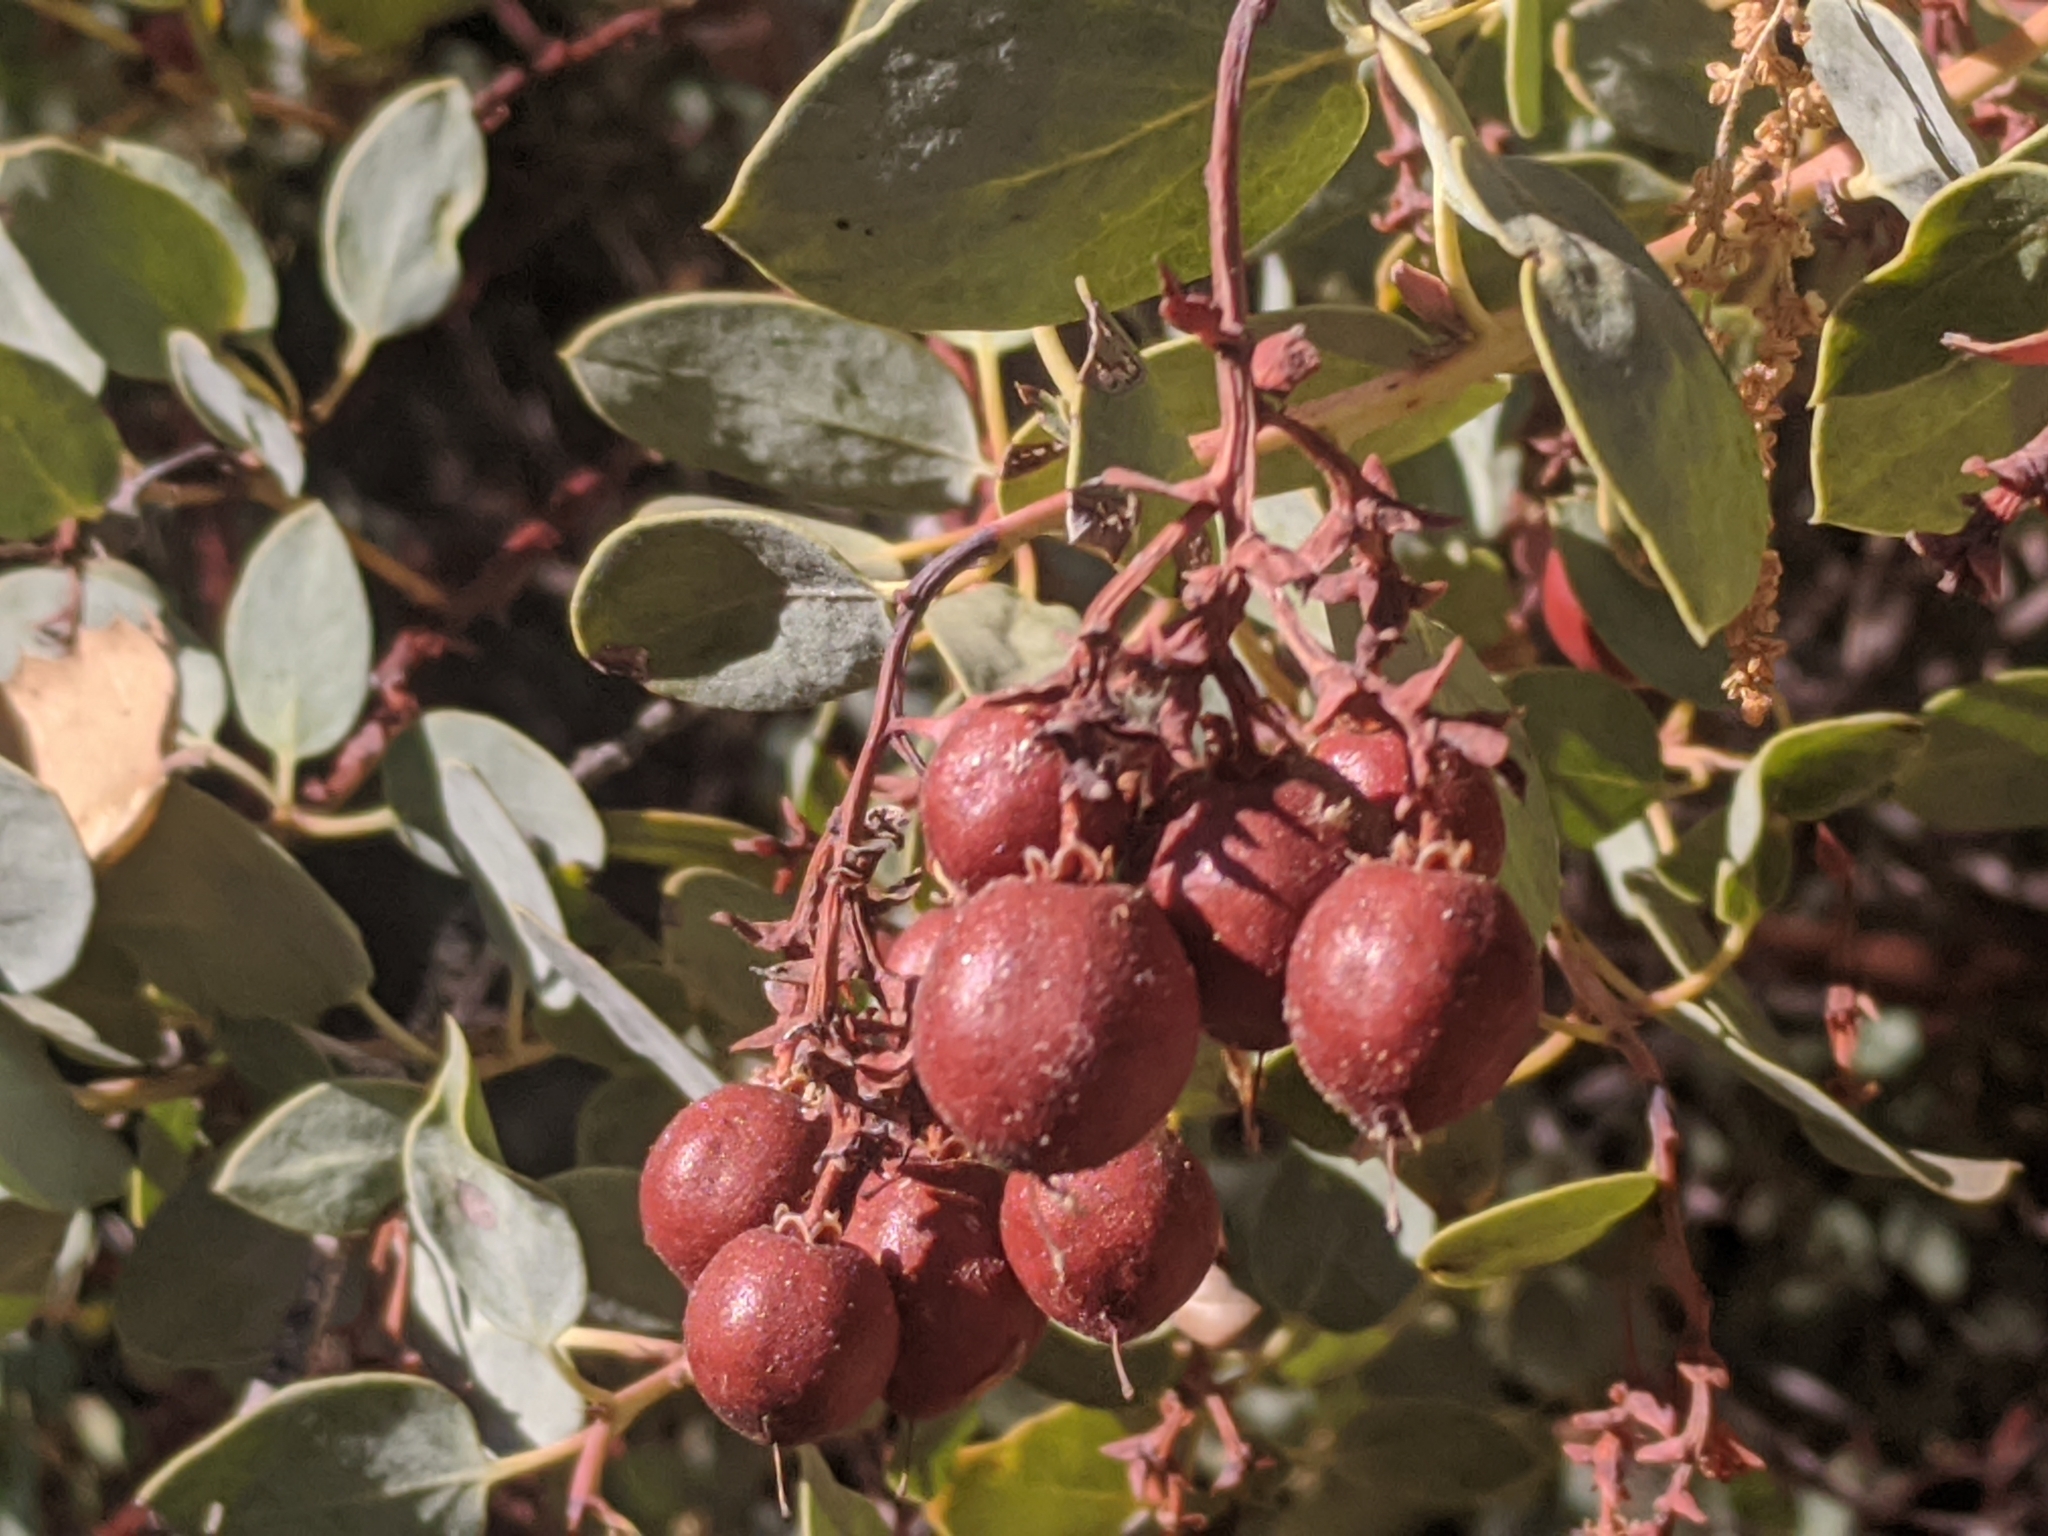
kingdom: Plantae
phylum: Tracheophyta
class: Magnoliopsida
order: Ericales
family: Ericaceae
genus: Arctostaphylos
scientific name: Arctostaphylos glauca
